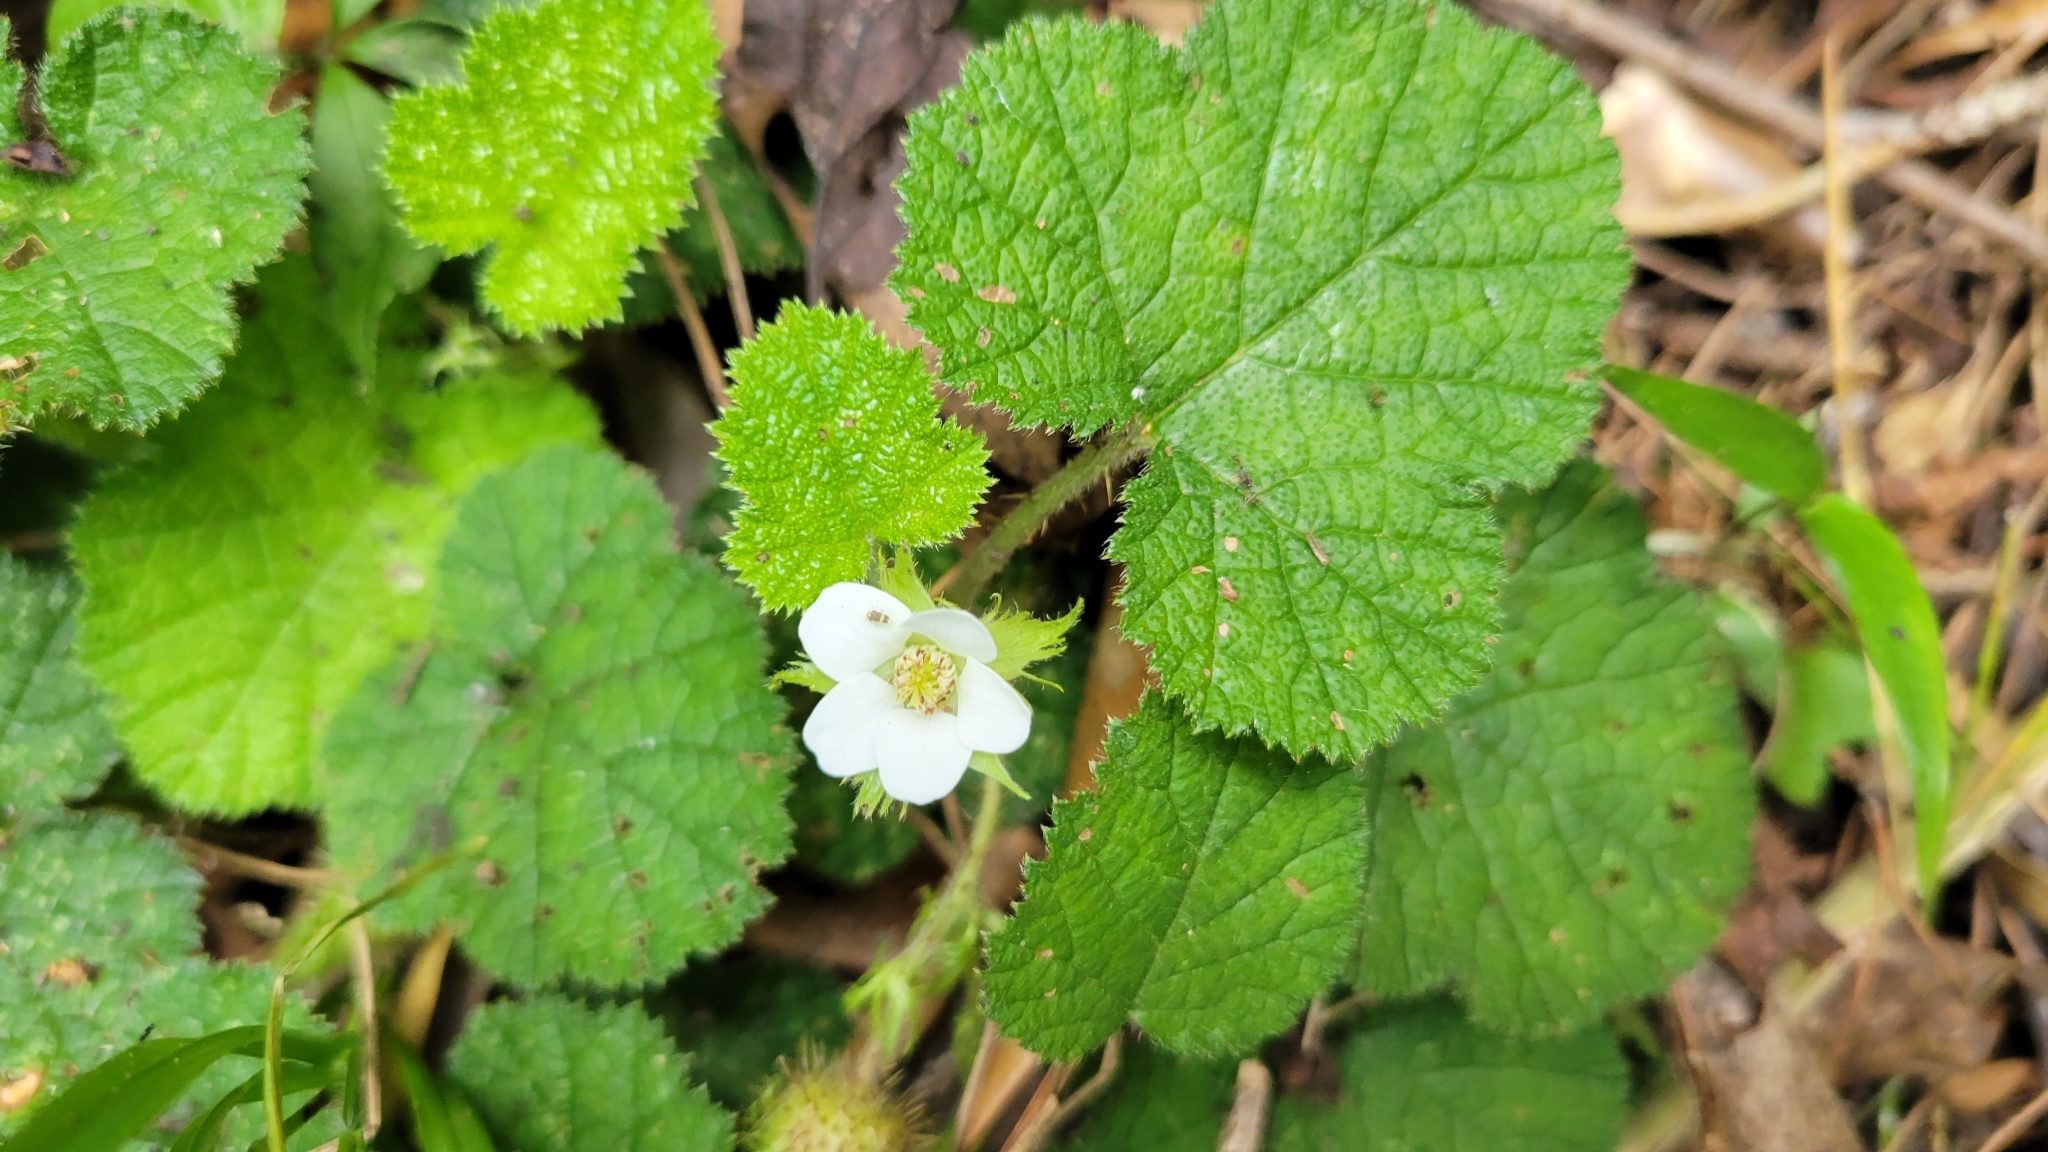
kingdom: Plantae
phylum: Tracheophyta
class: Magnoliopsida
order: Rosales
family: Rosaceae
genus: Rubus
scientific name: Rubus pectinellus
